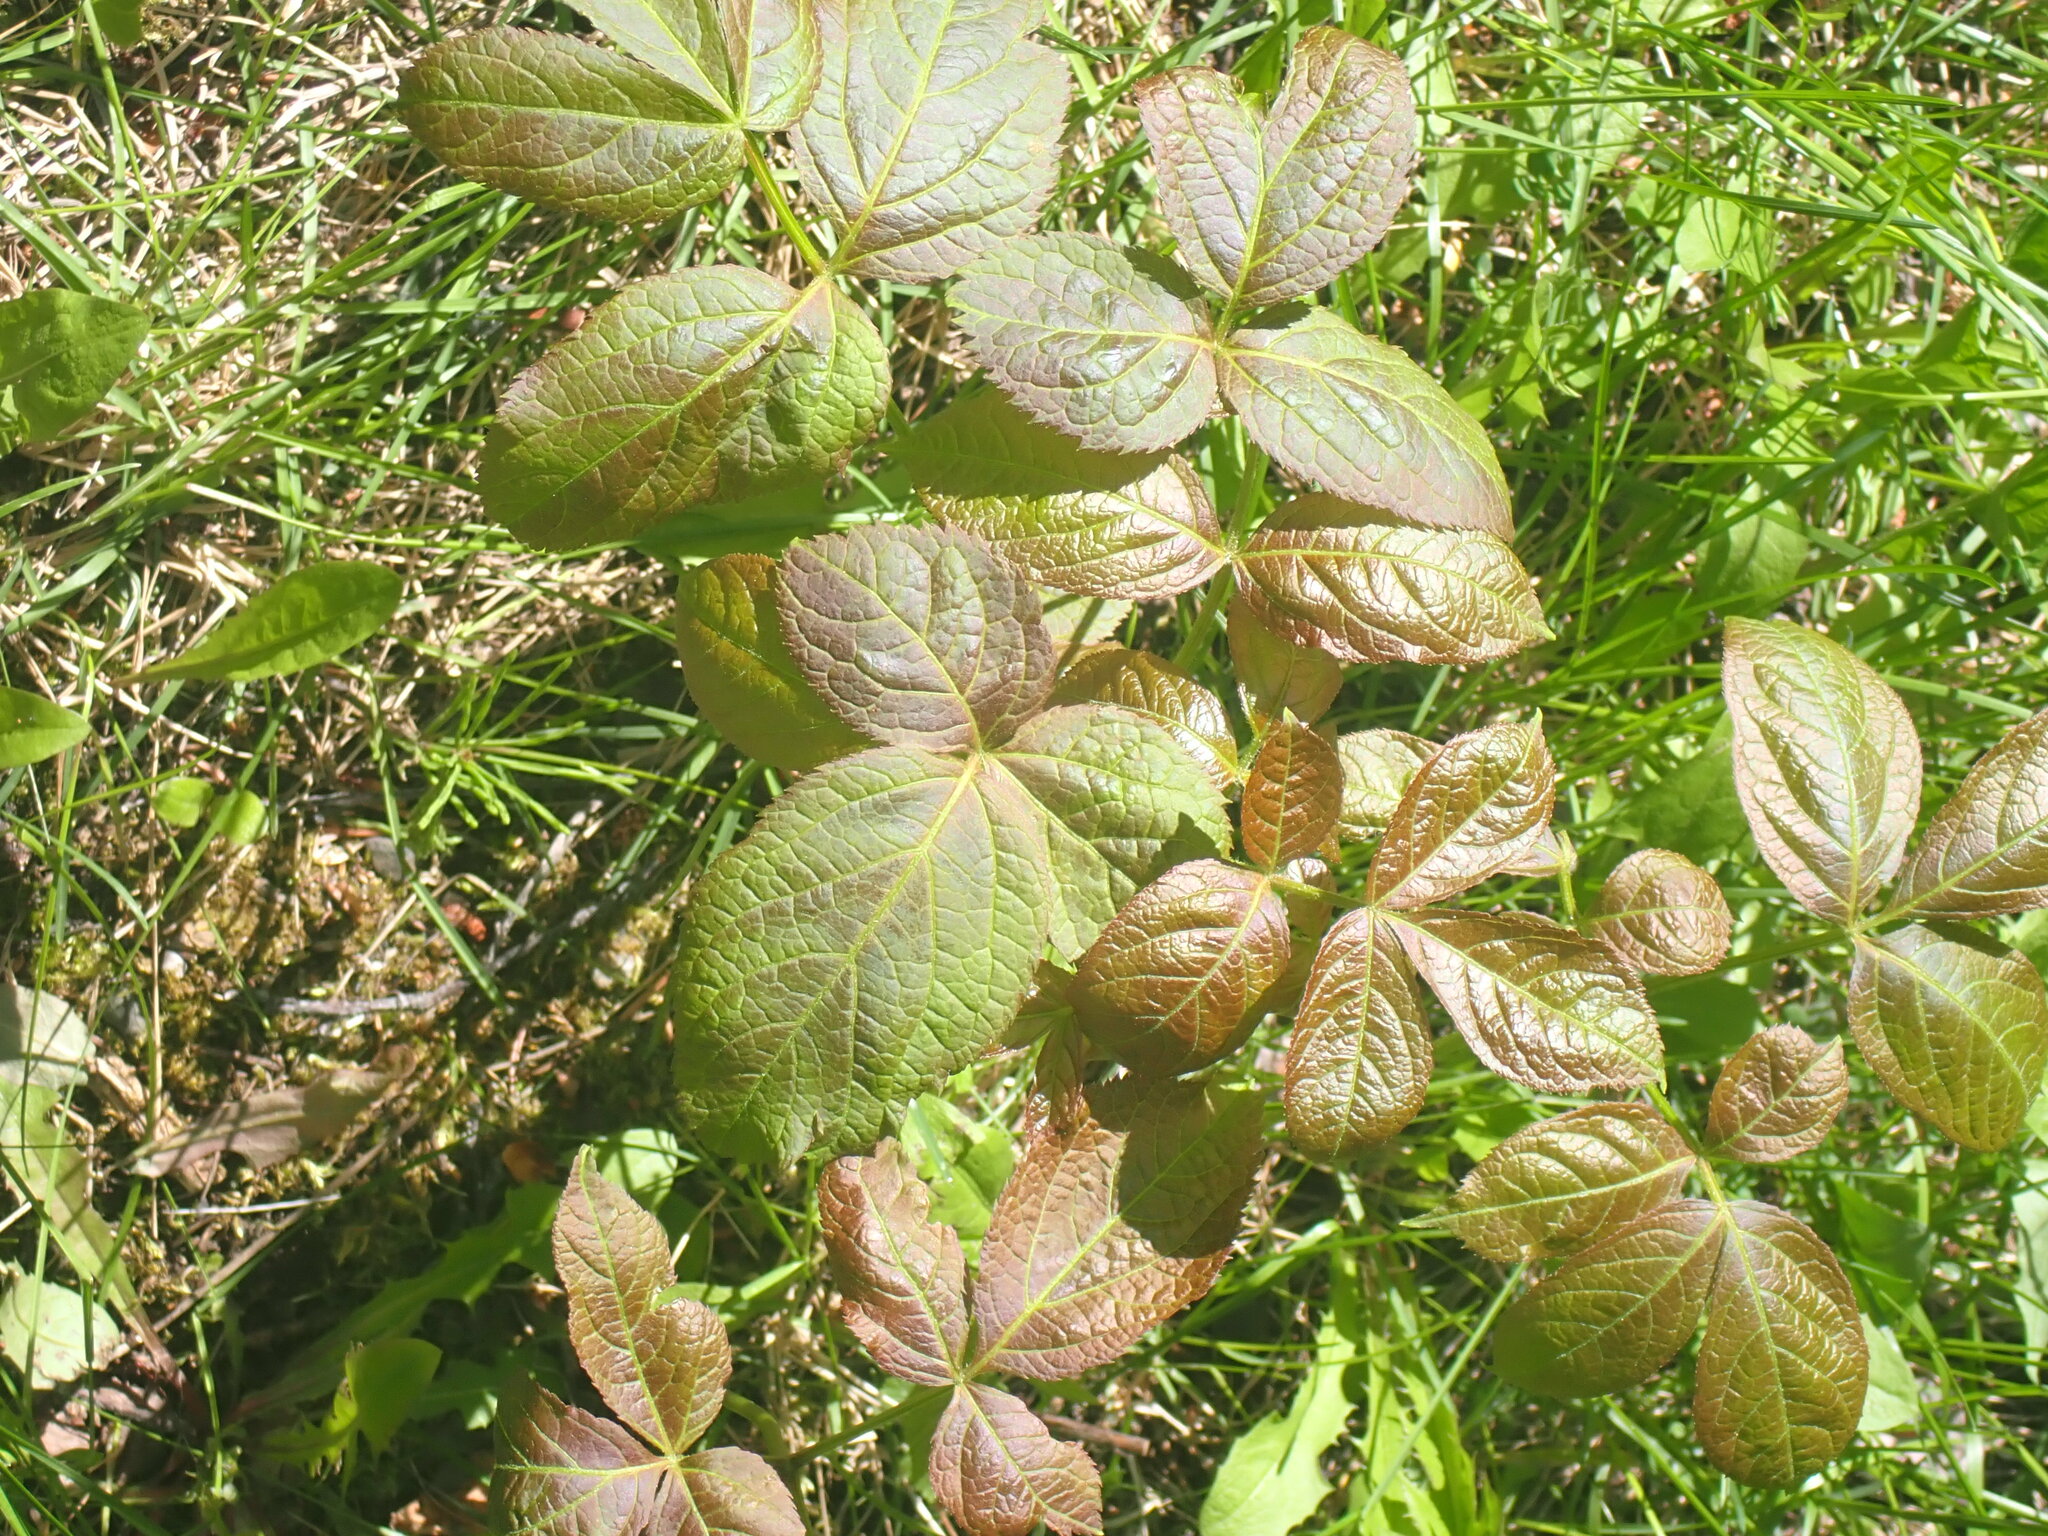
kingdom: Plantae
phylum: Tracheophyta
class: Magnoliopsida
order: Apiales
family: Araliaceae
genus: Aralia
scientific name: Aralia nudicaulis
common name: Wild sarsaparilla
